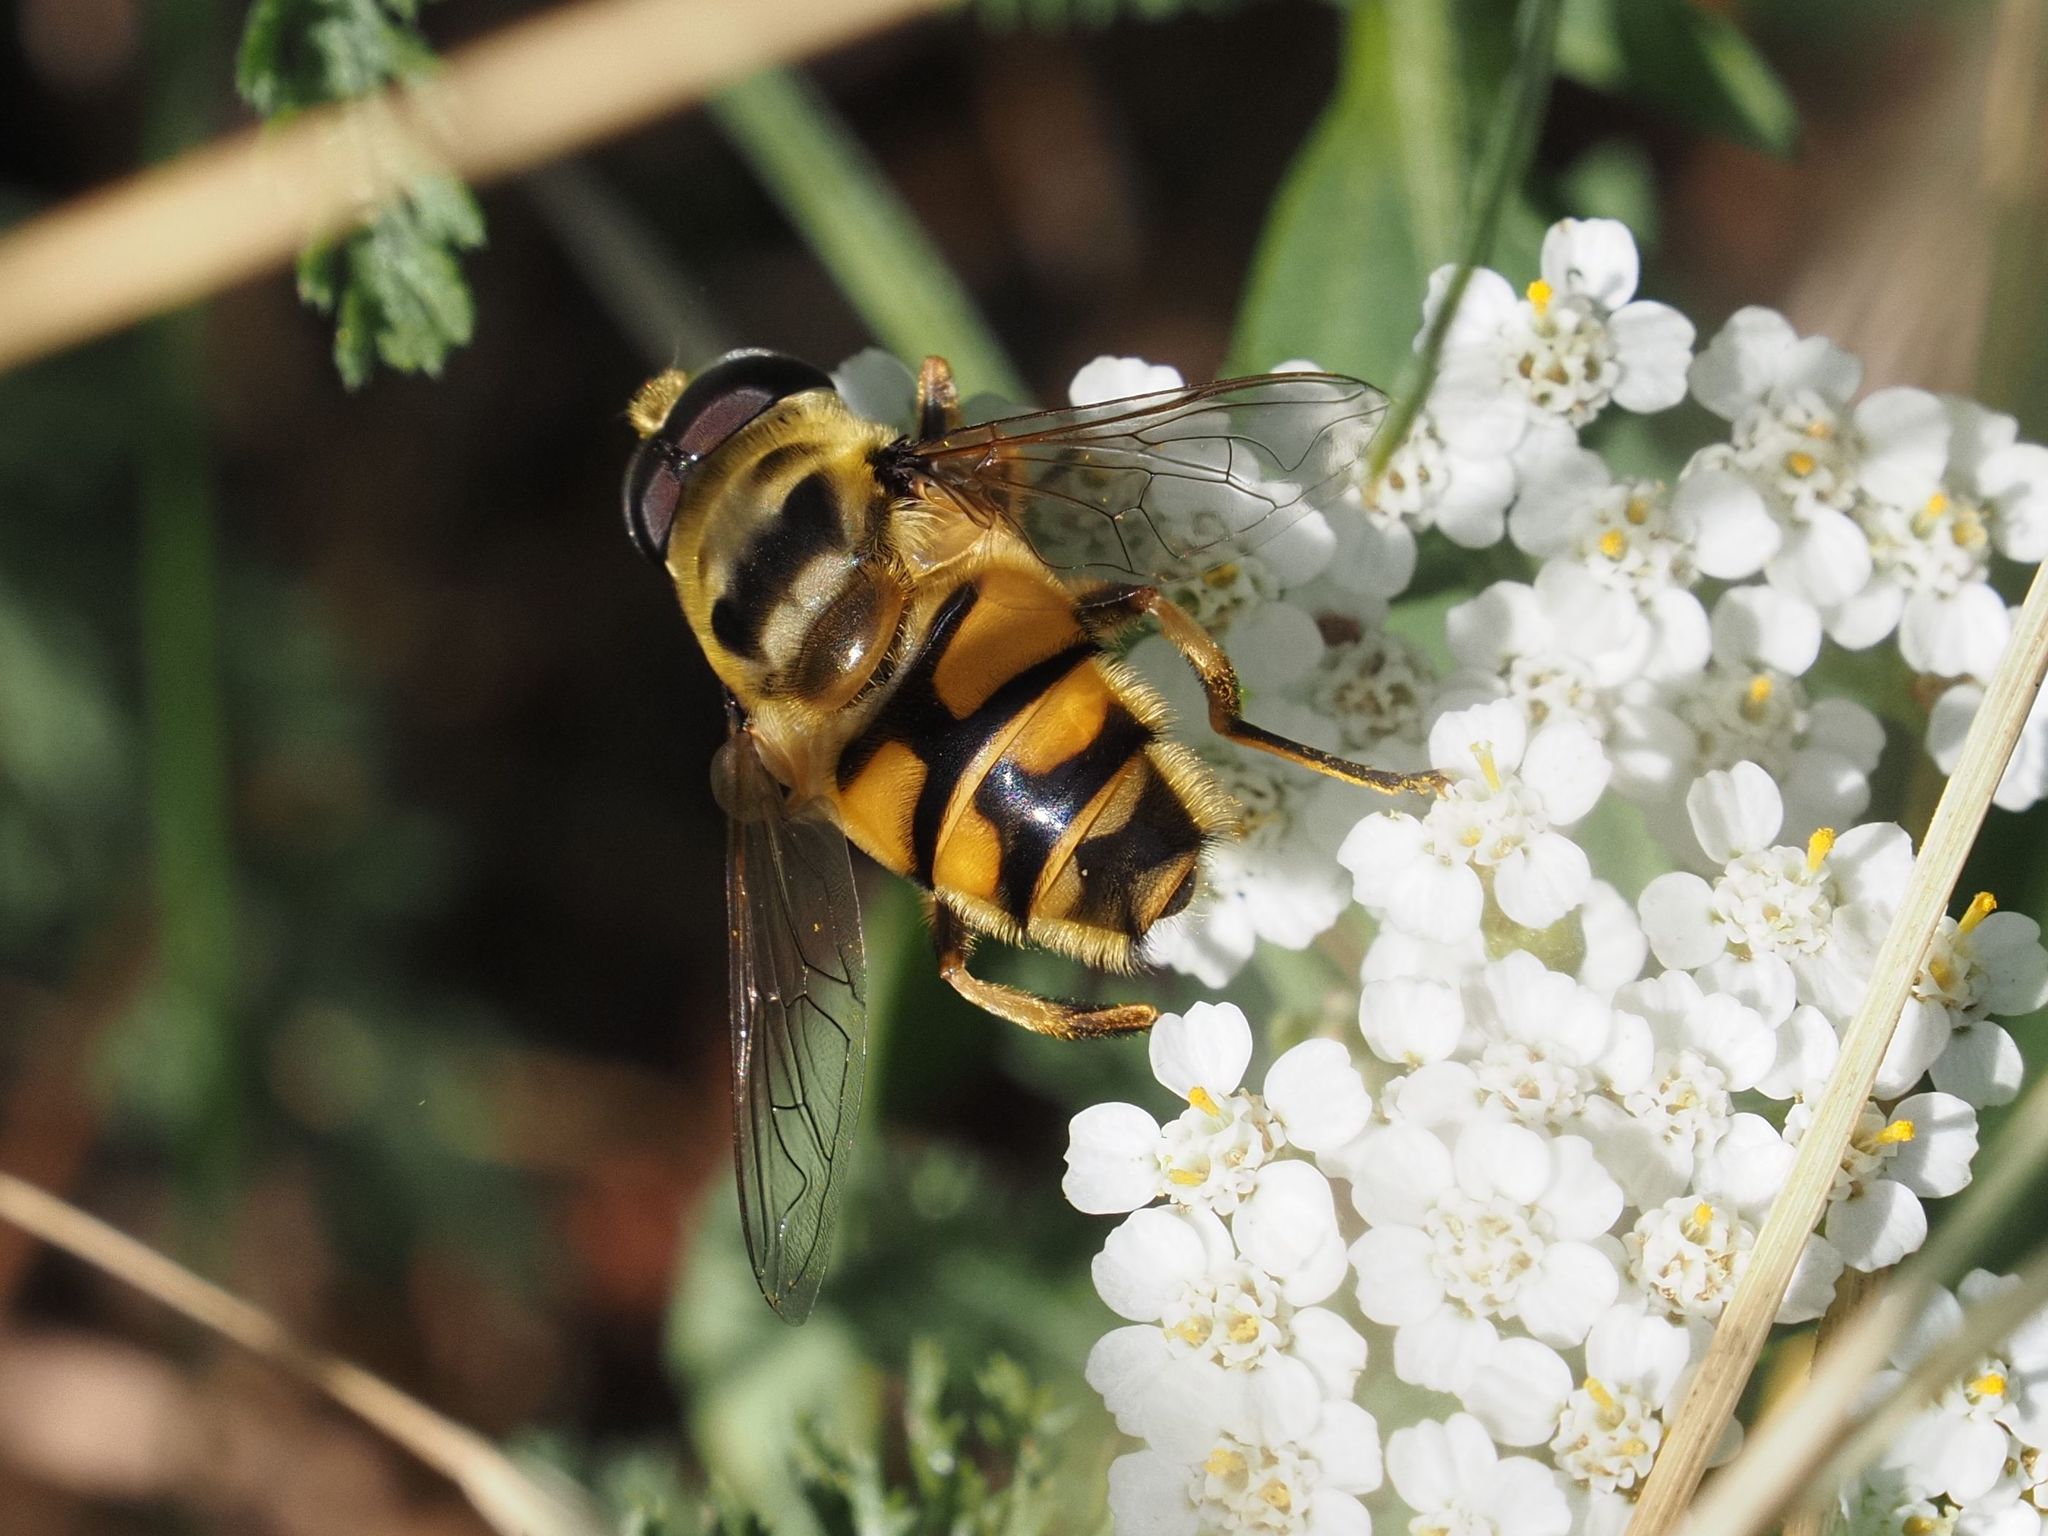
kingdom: Animalia
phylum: Arthropoda
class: Insecta
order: Diptera
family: Syrphidae
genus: Myathropa
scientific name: Myathropa florea
